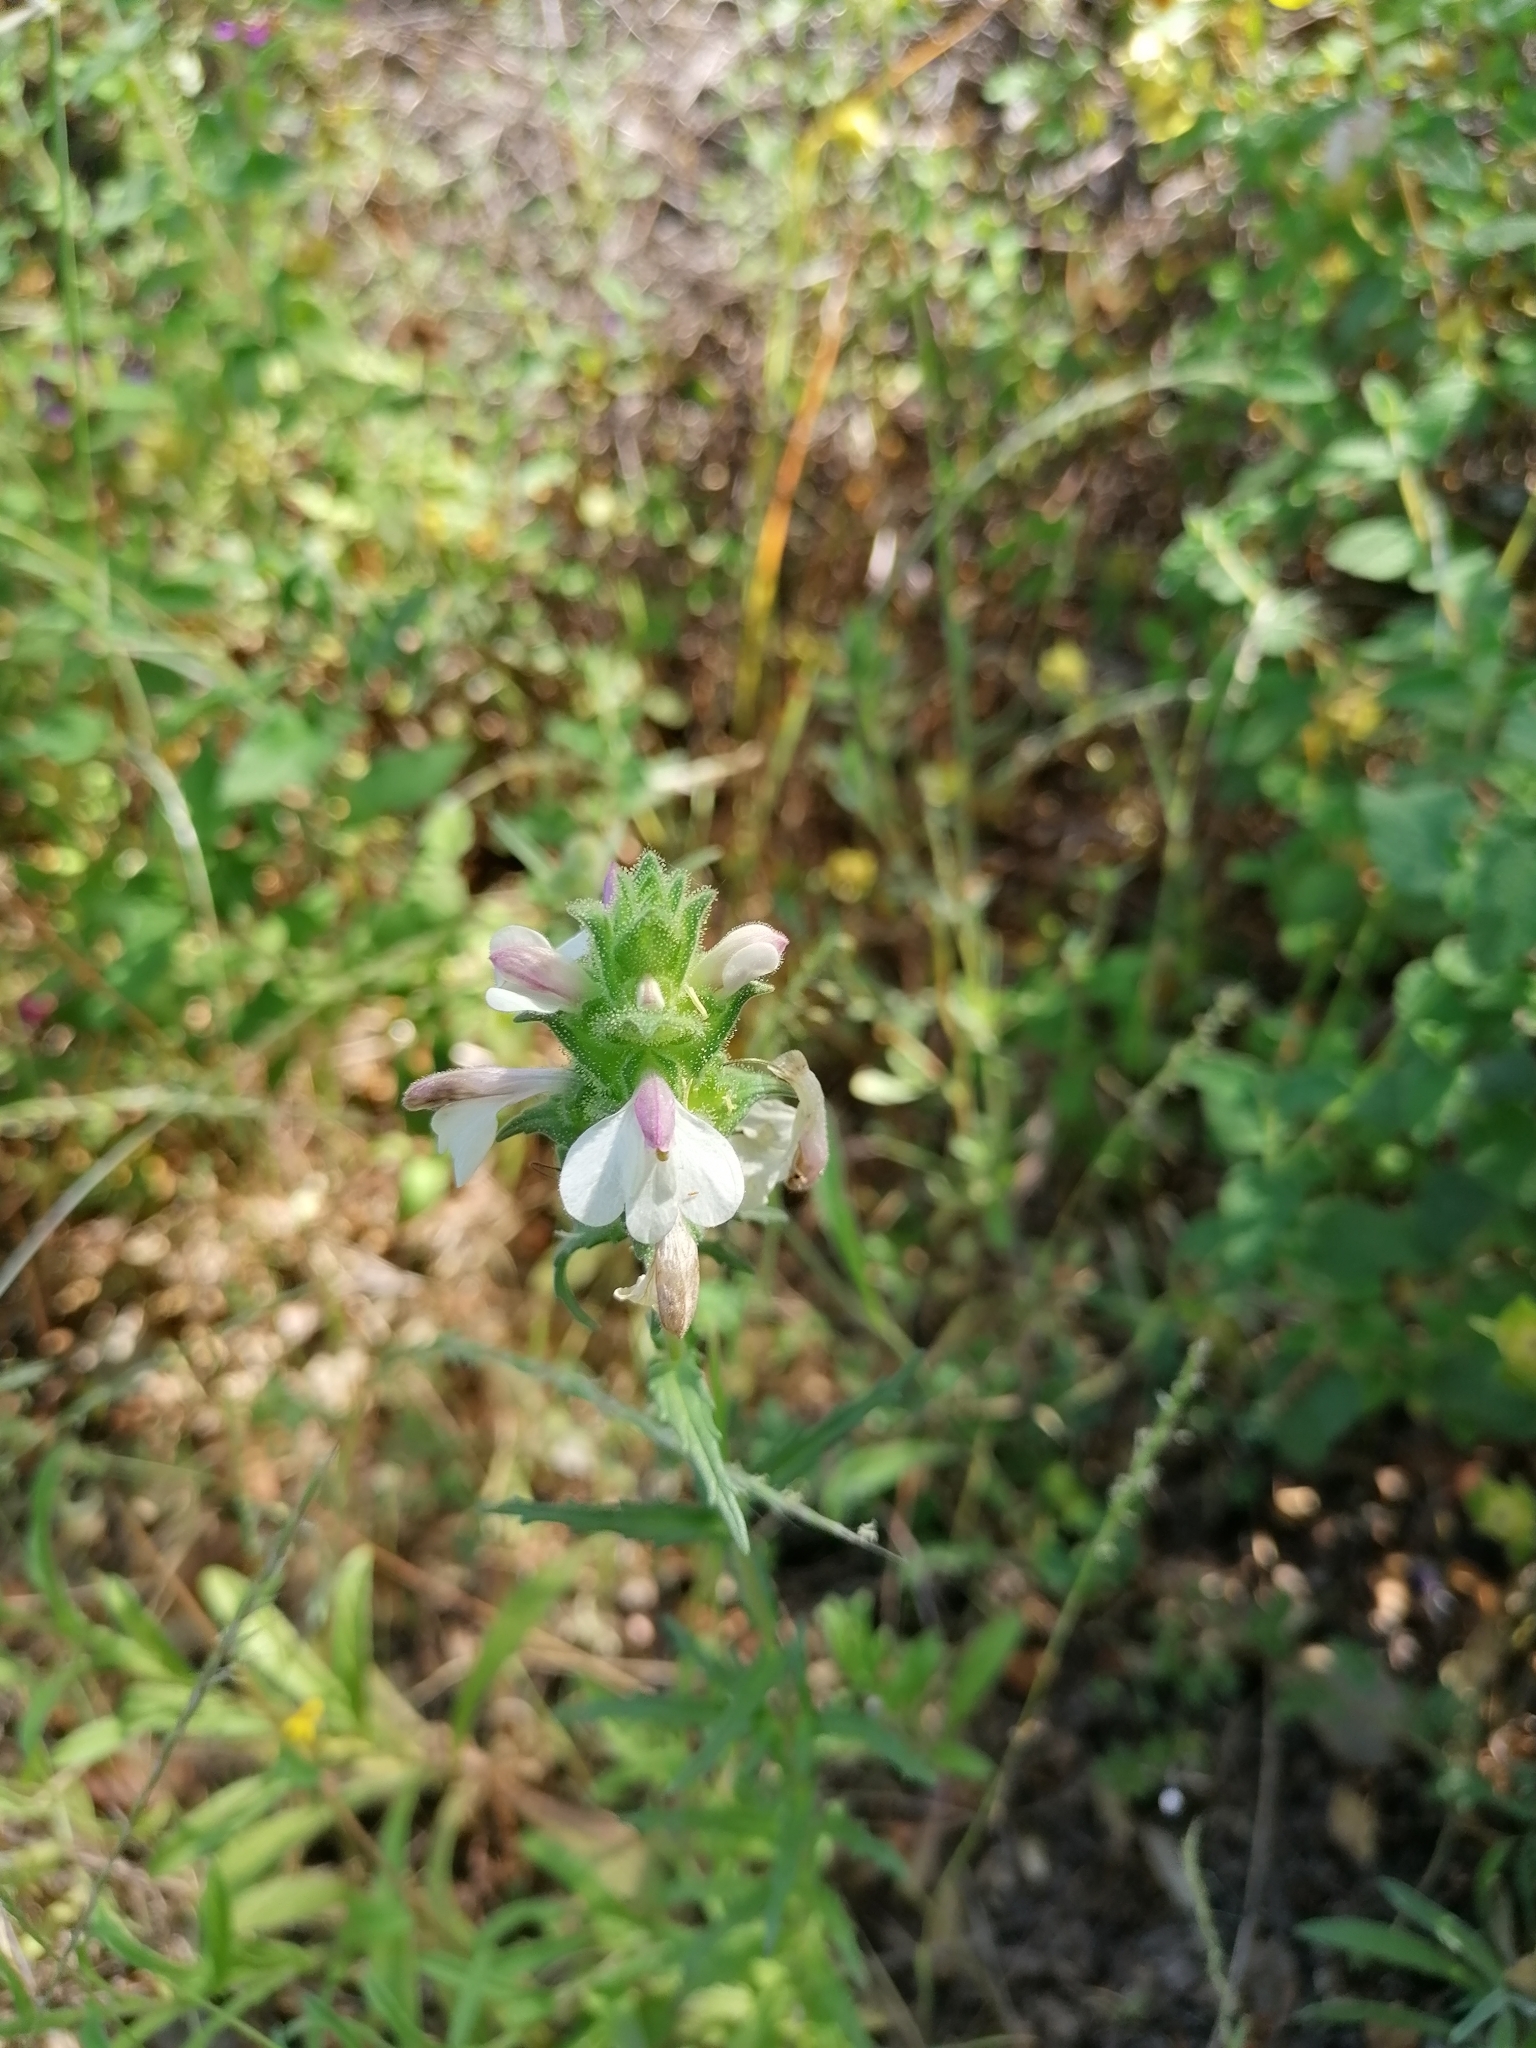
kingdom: Plantae
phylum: Tracheophyta
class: Magnoliopsida
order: Lamiales
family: Orobanchaceae
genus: Bellardia
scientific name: Bellardia trixago
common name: Mediterranean lineseed
